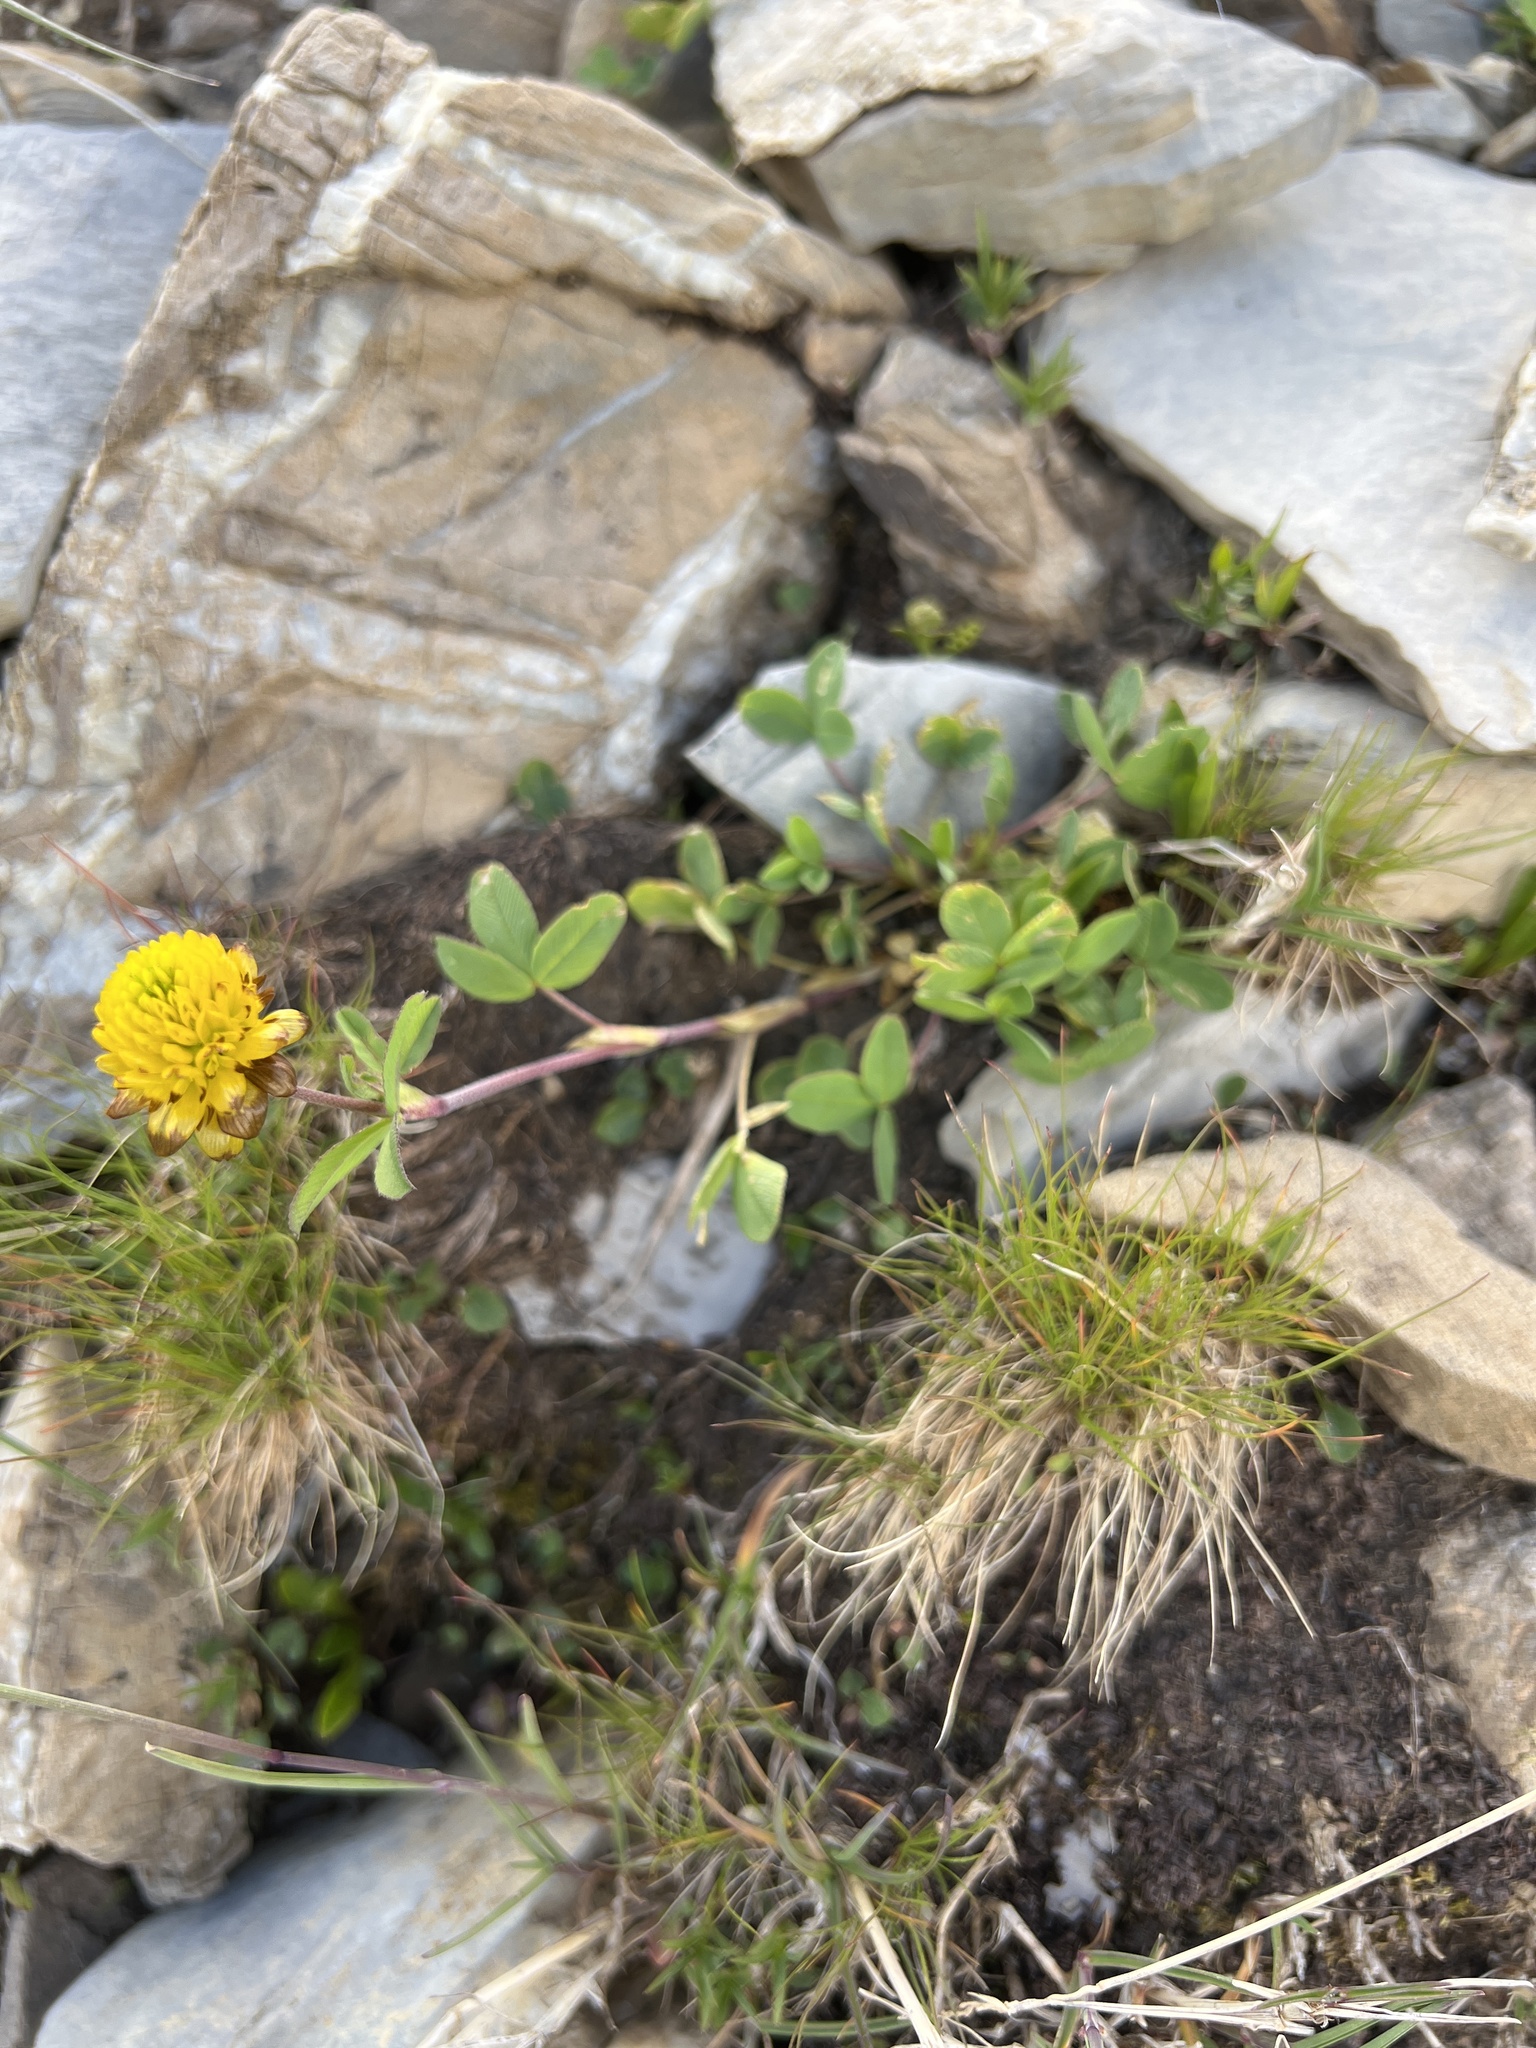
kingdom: Plantae
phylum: Tracheophyta
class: Magnoliopsida
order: Fabales
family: Fabaceae
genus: Trifolium
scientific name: Trifolium badium
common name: Brown clover
